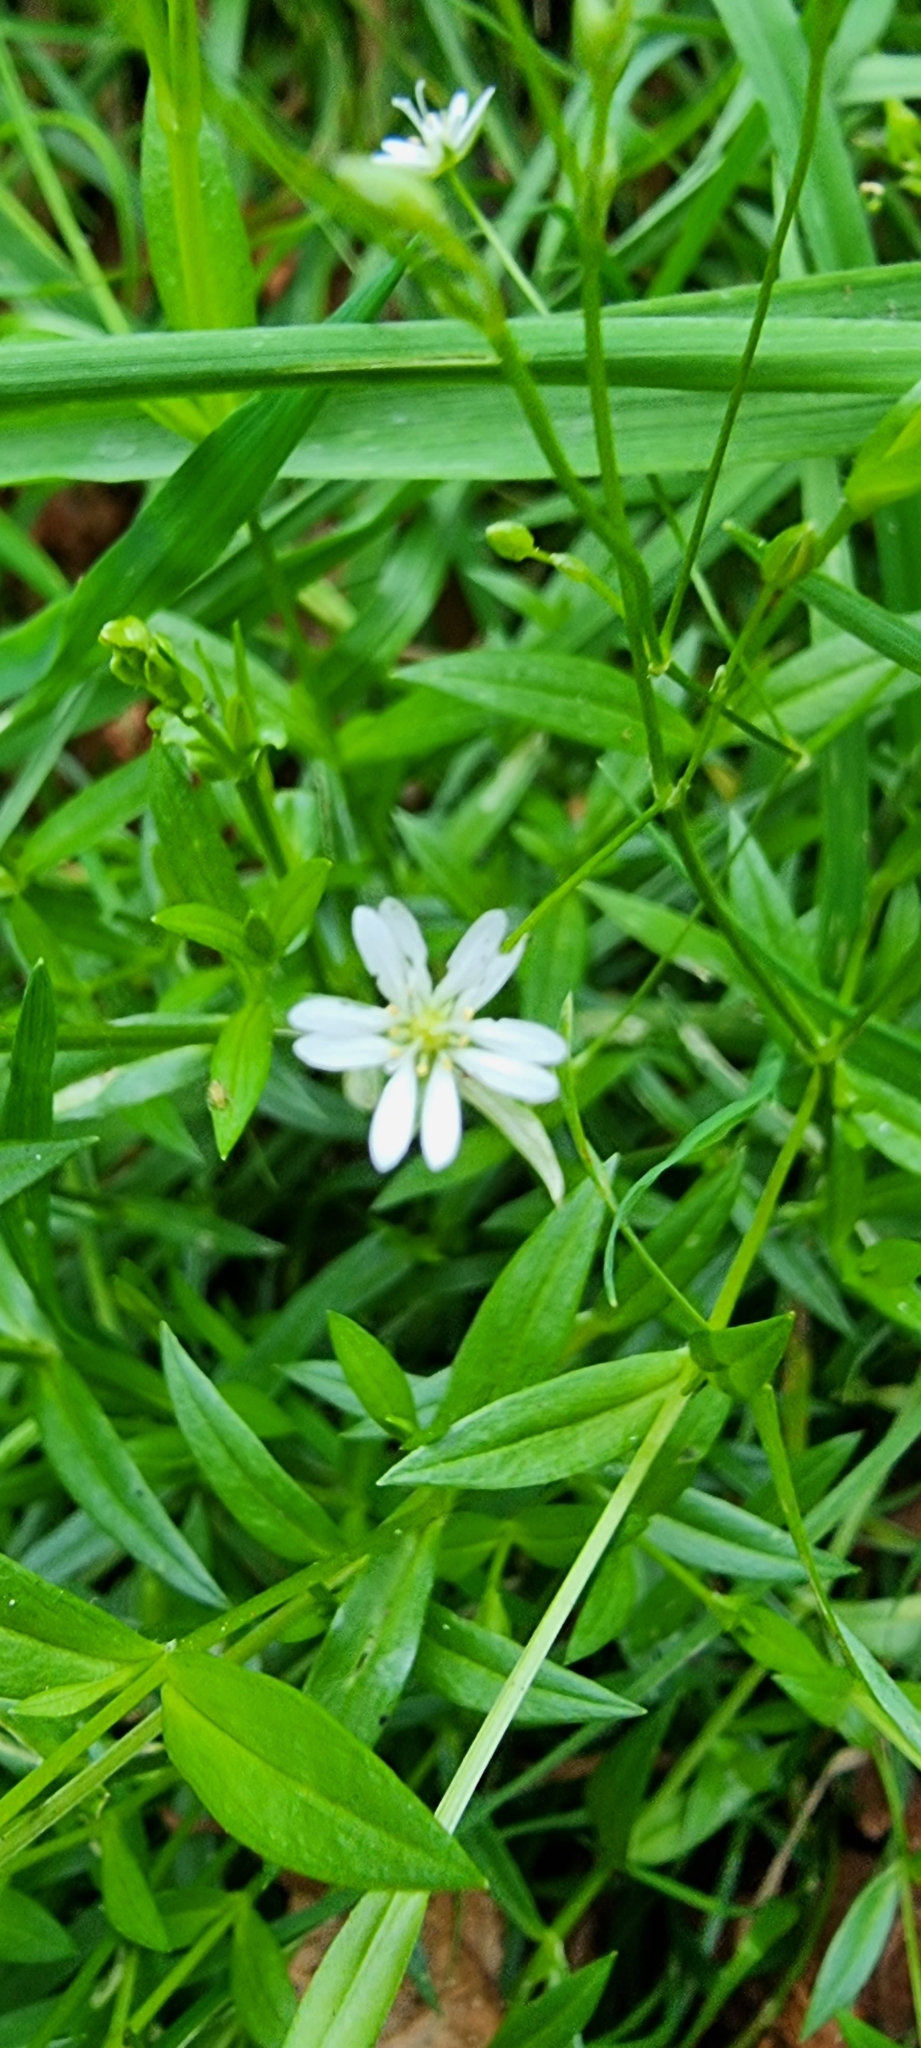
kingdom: Plantae
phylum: Tracheophyta
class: Magnoliopsida
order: Caryophyllales
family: Caryophyllaceae
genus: Rabelera
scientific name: Rabelera holostea
